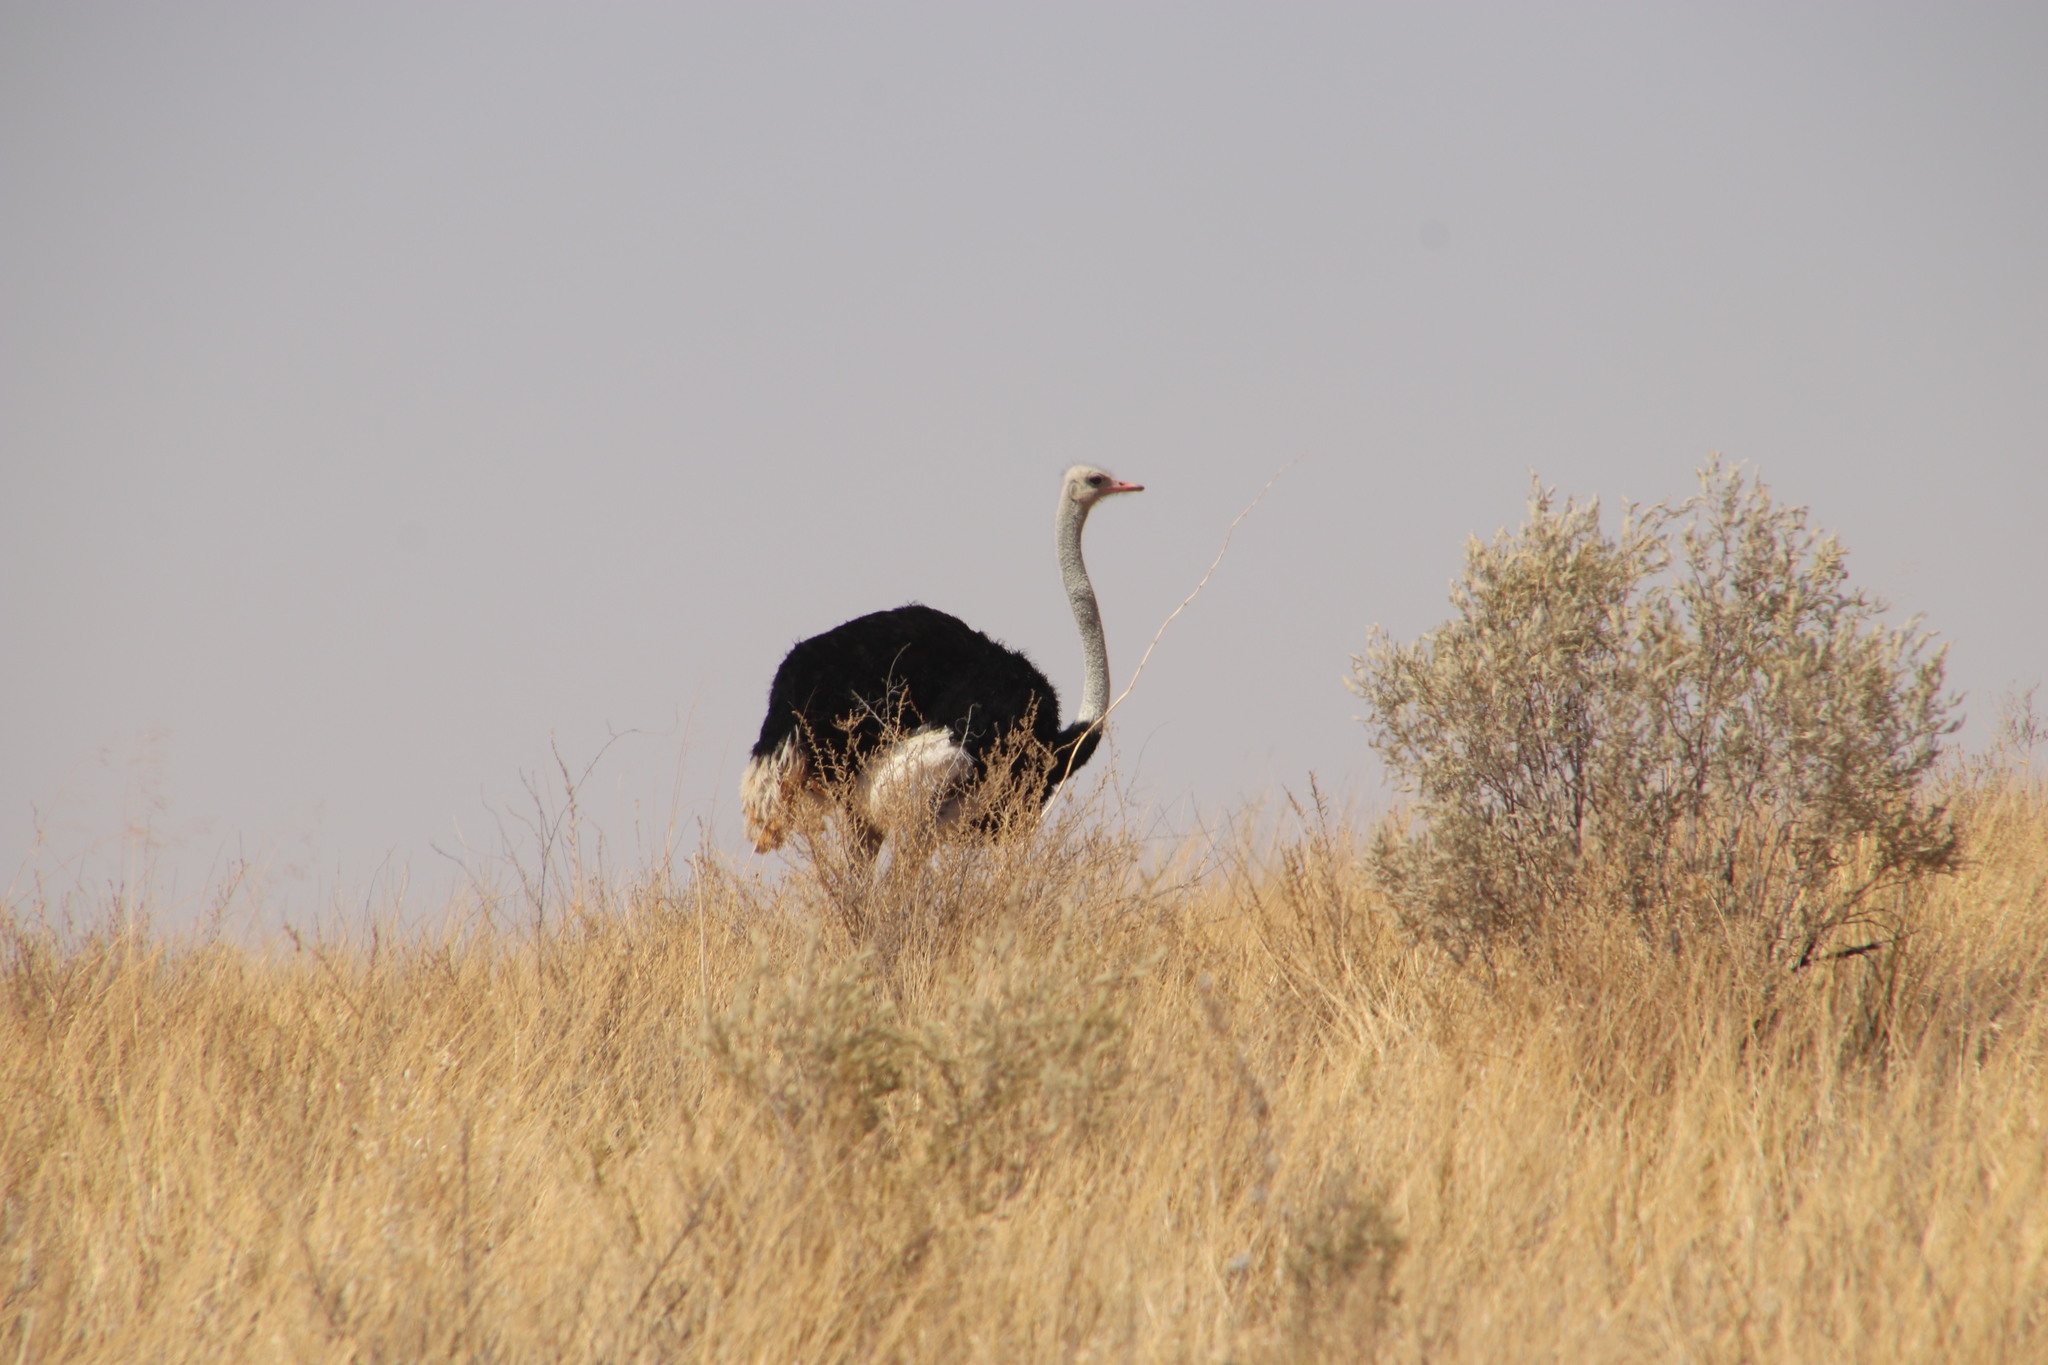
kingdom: Animalia
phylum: Chordata
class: Aves
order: Struthioniformes
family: Struthionidae
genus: Struthio
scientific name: Struthio camelus
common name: Common ostrich
